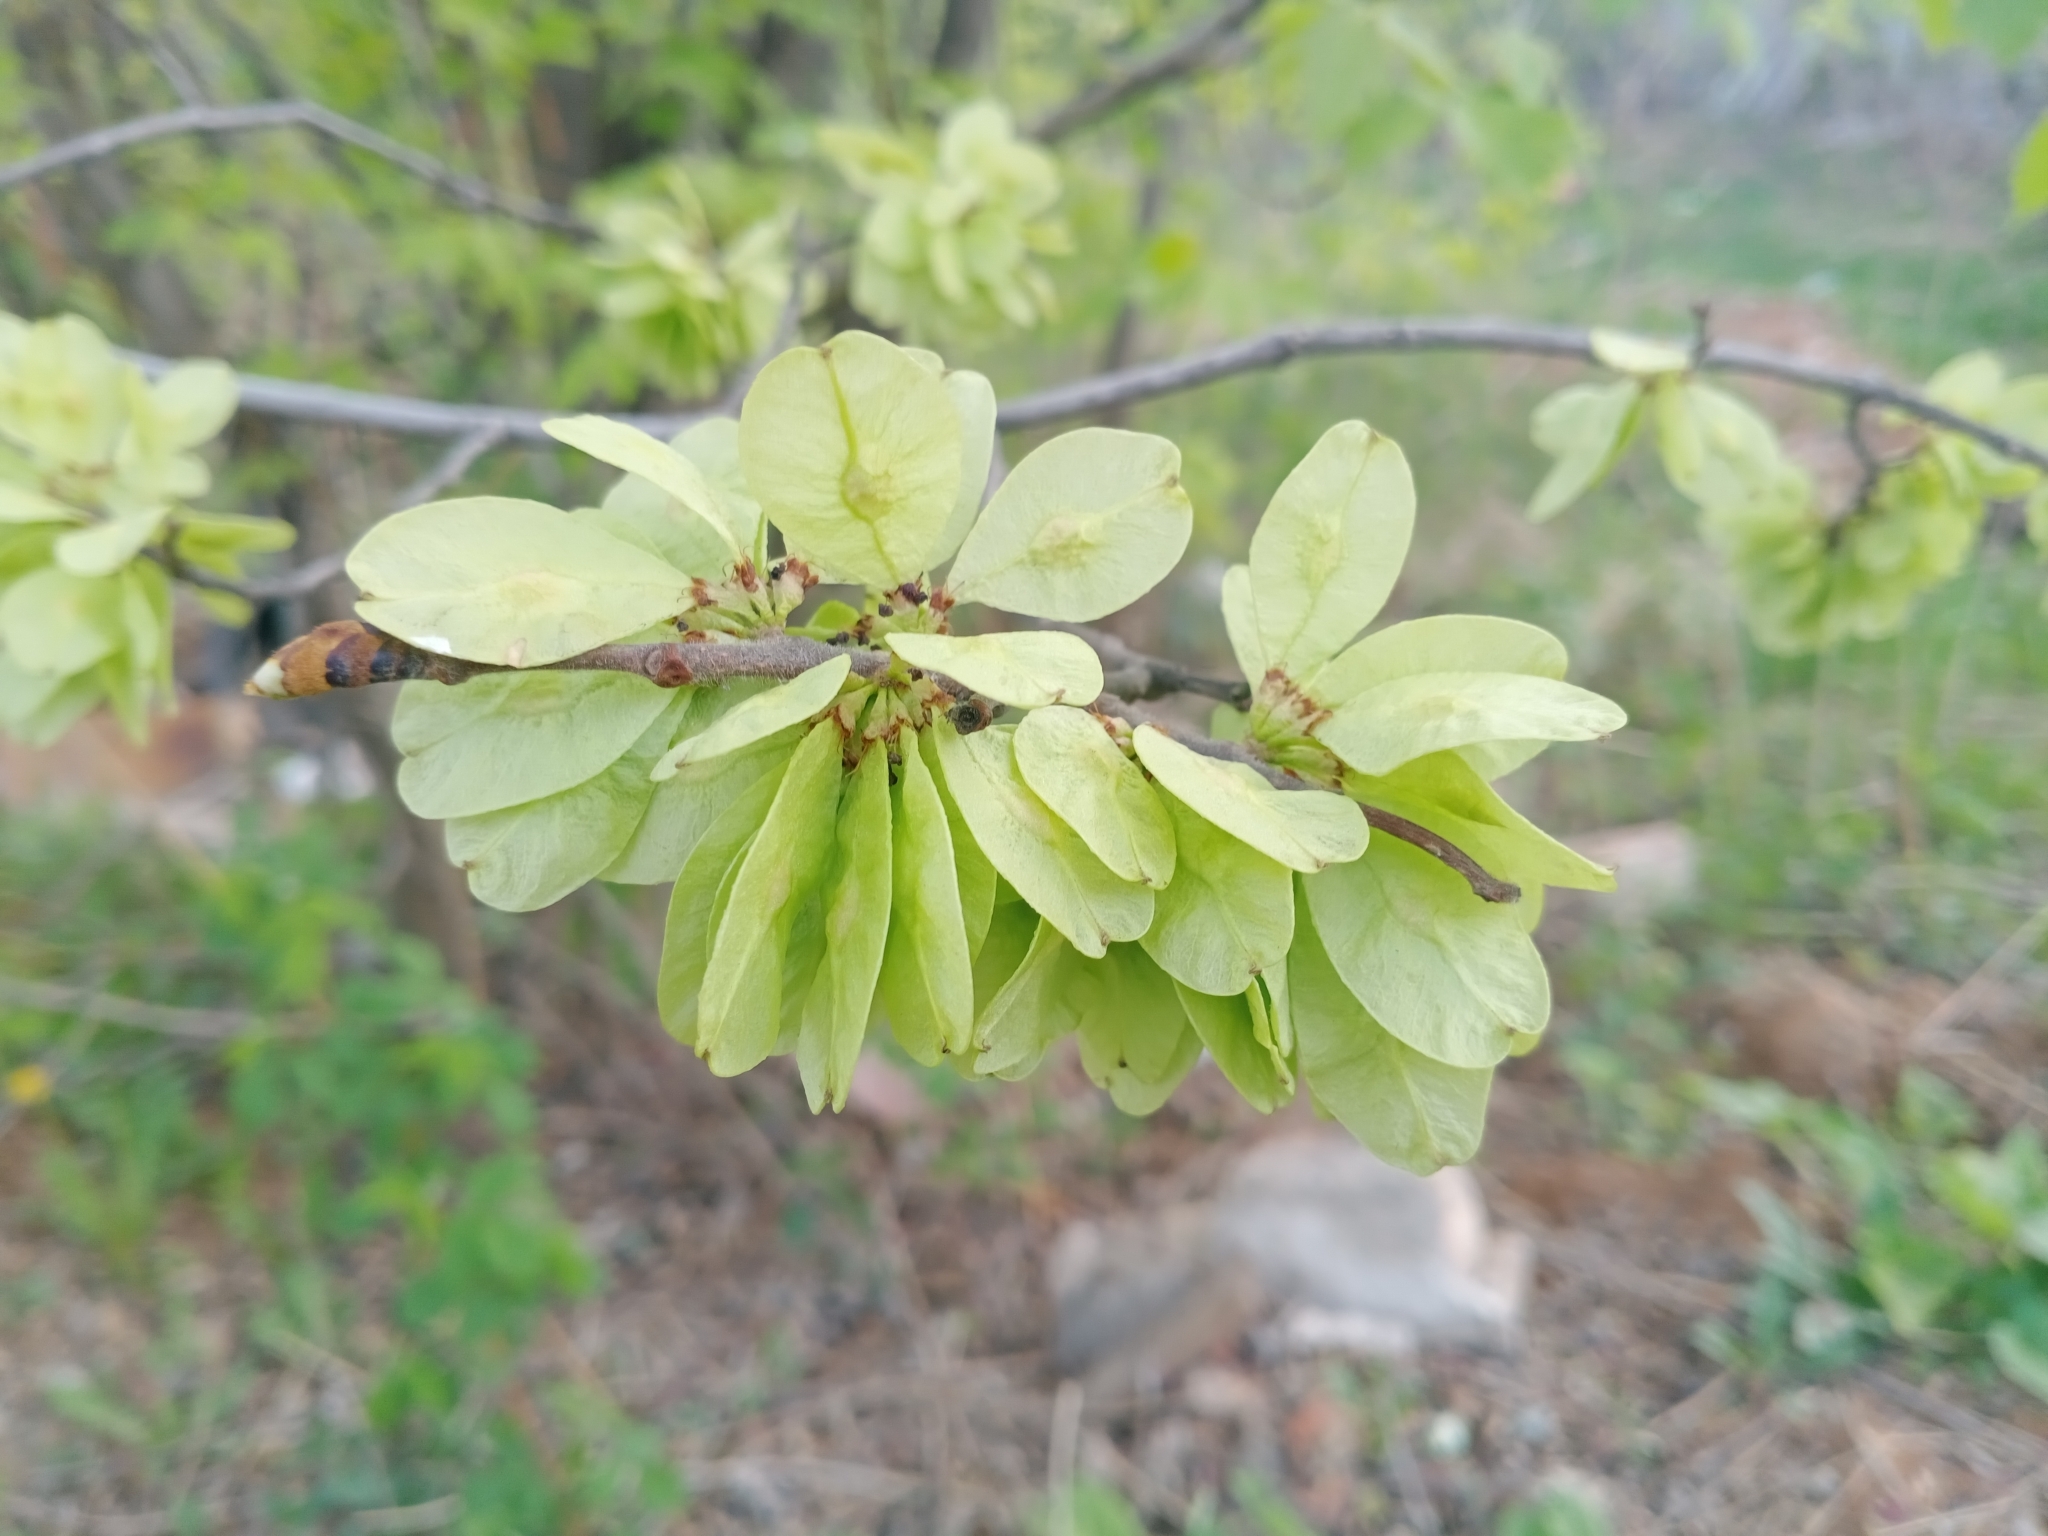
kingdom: Plantae
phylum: Tracheophyta
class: Magnoliopsida
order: Rosales
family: Ulmaceae
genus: Ulmus
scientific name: Ulmus glabra
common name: Wych elm
